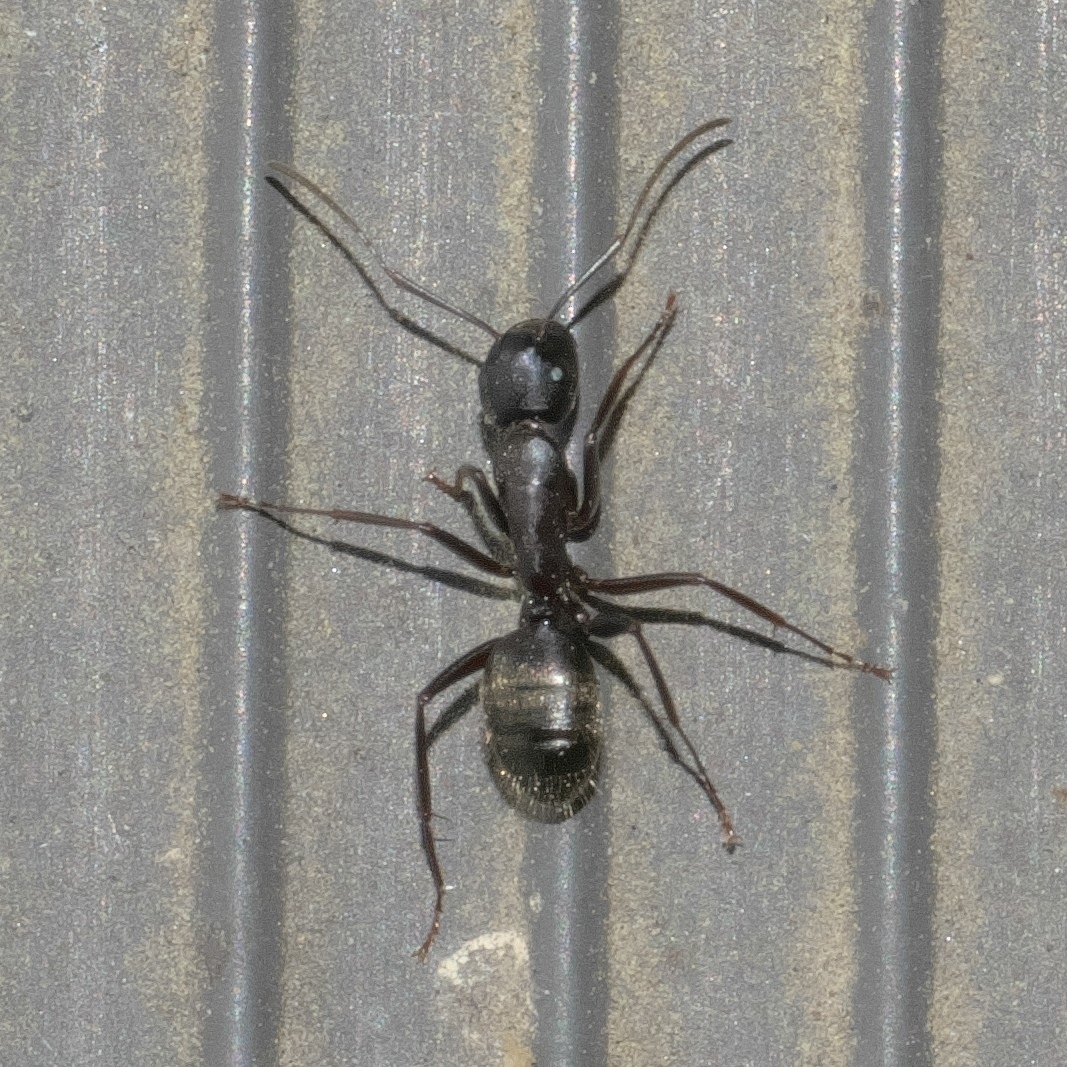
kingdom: Animalia
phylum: Arthropoda
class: Insecta
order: Hymenoptera
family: Formicidae
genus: Camponotus
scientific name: Camponotus pennsylvanicus
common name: Black carpenter ant
